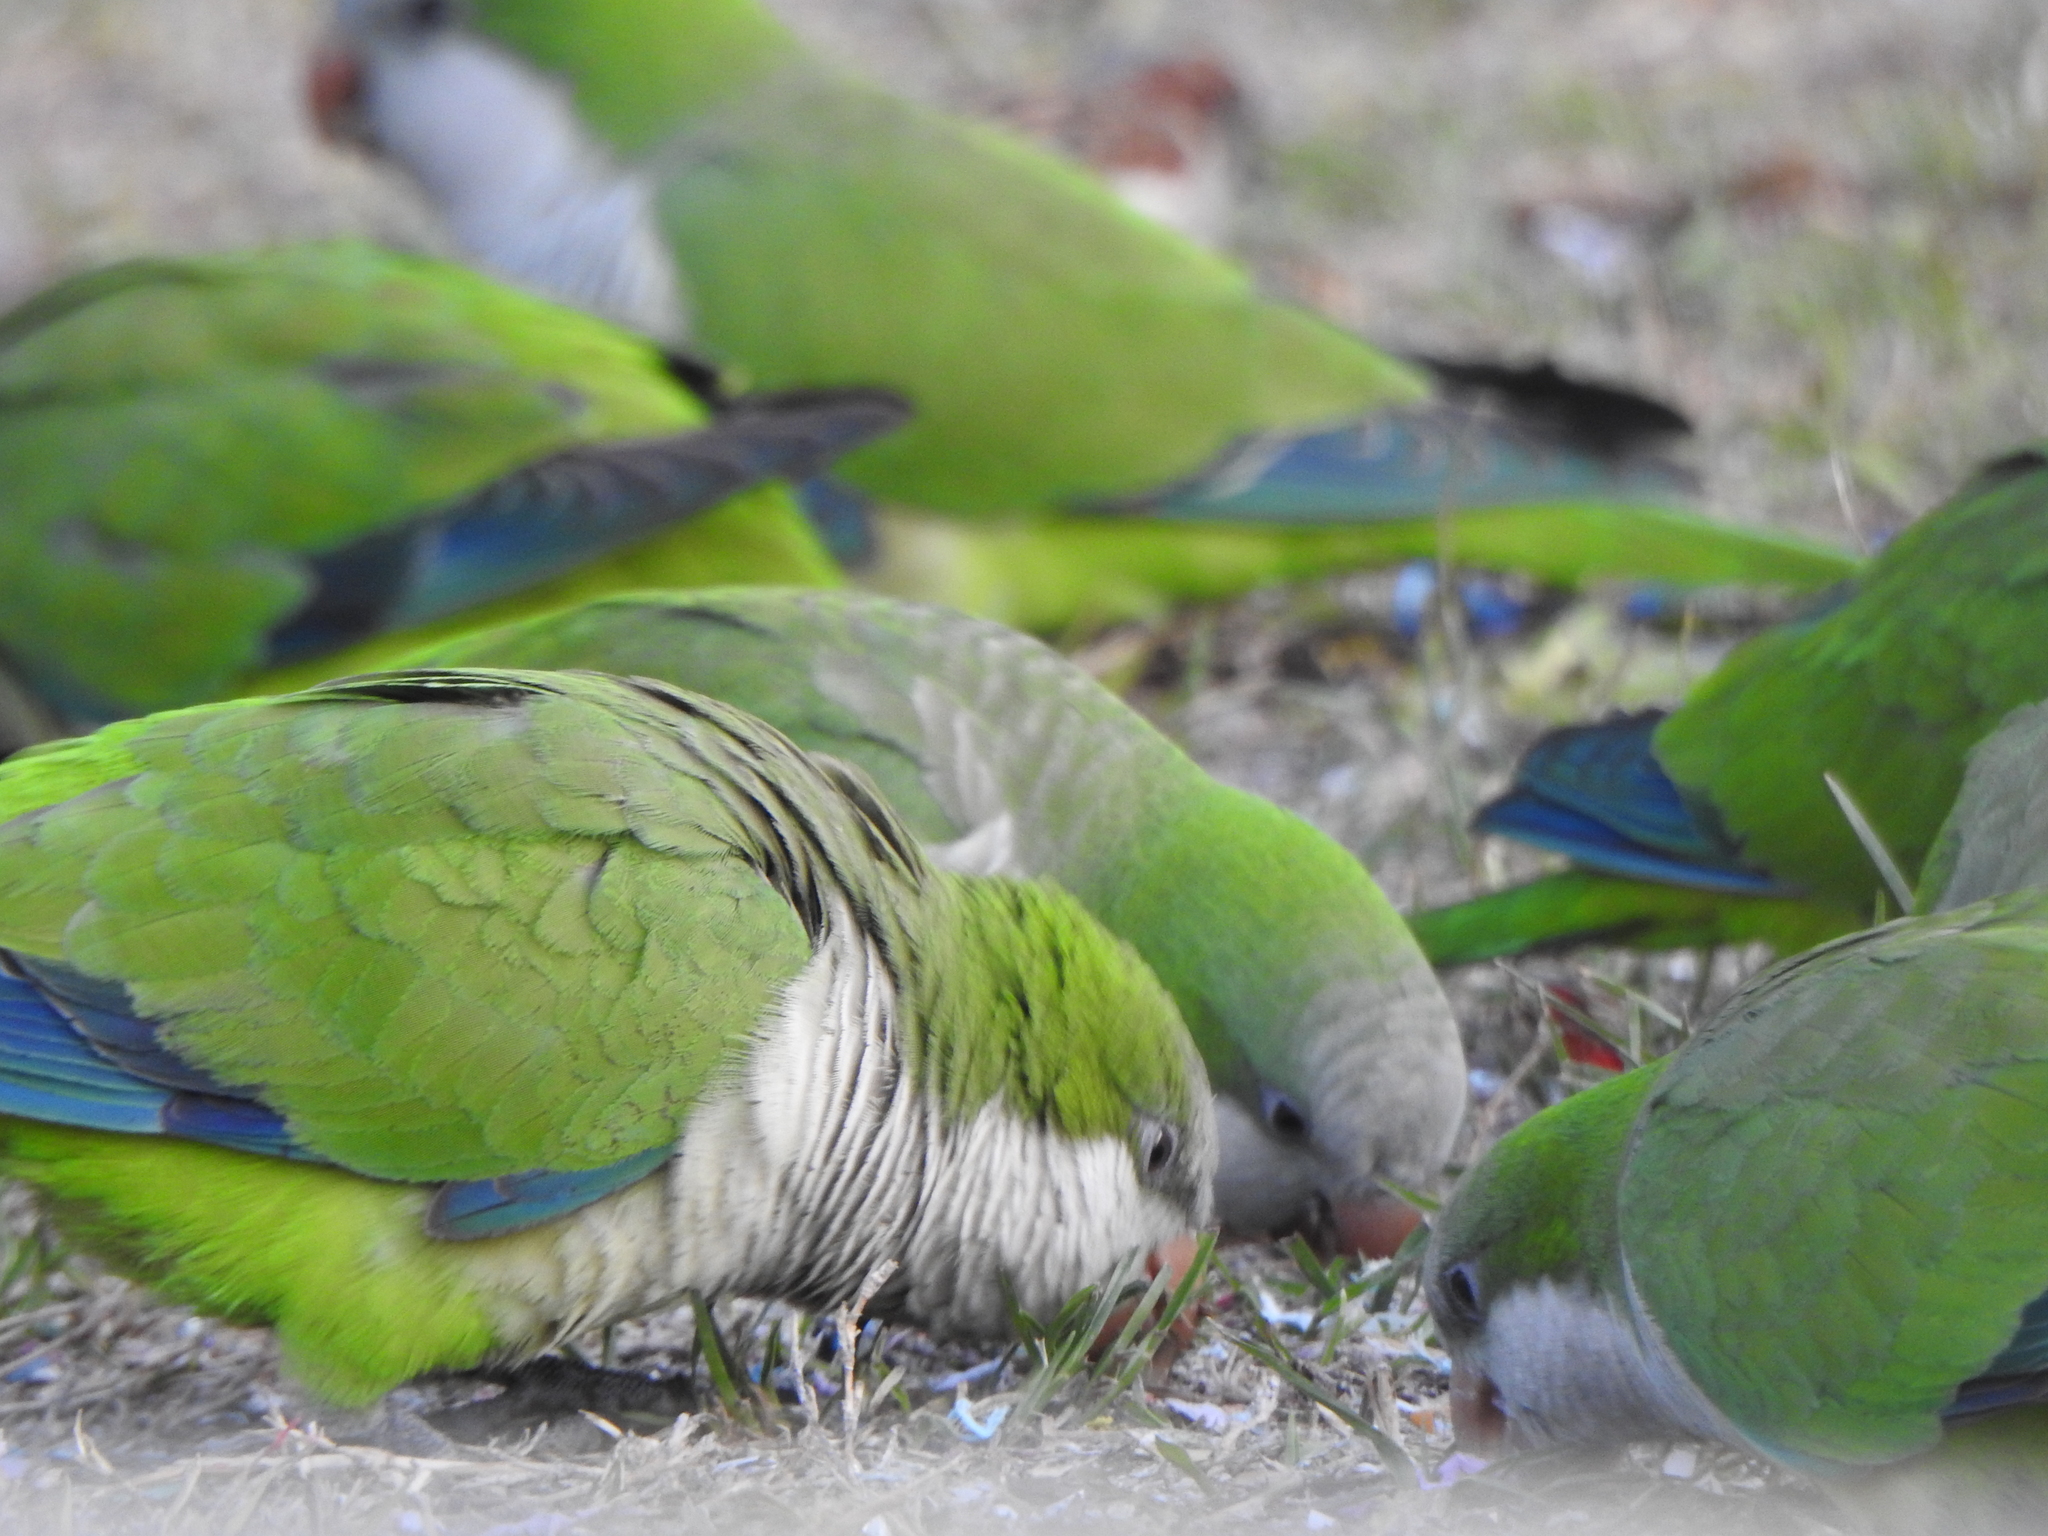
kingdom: Animalia
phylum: Chordata
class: Aves
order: Psittaciformes
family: Psittacidae
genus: Myiopsitta
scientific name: Myiopsitta monachus
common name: Monk parakeet
